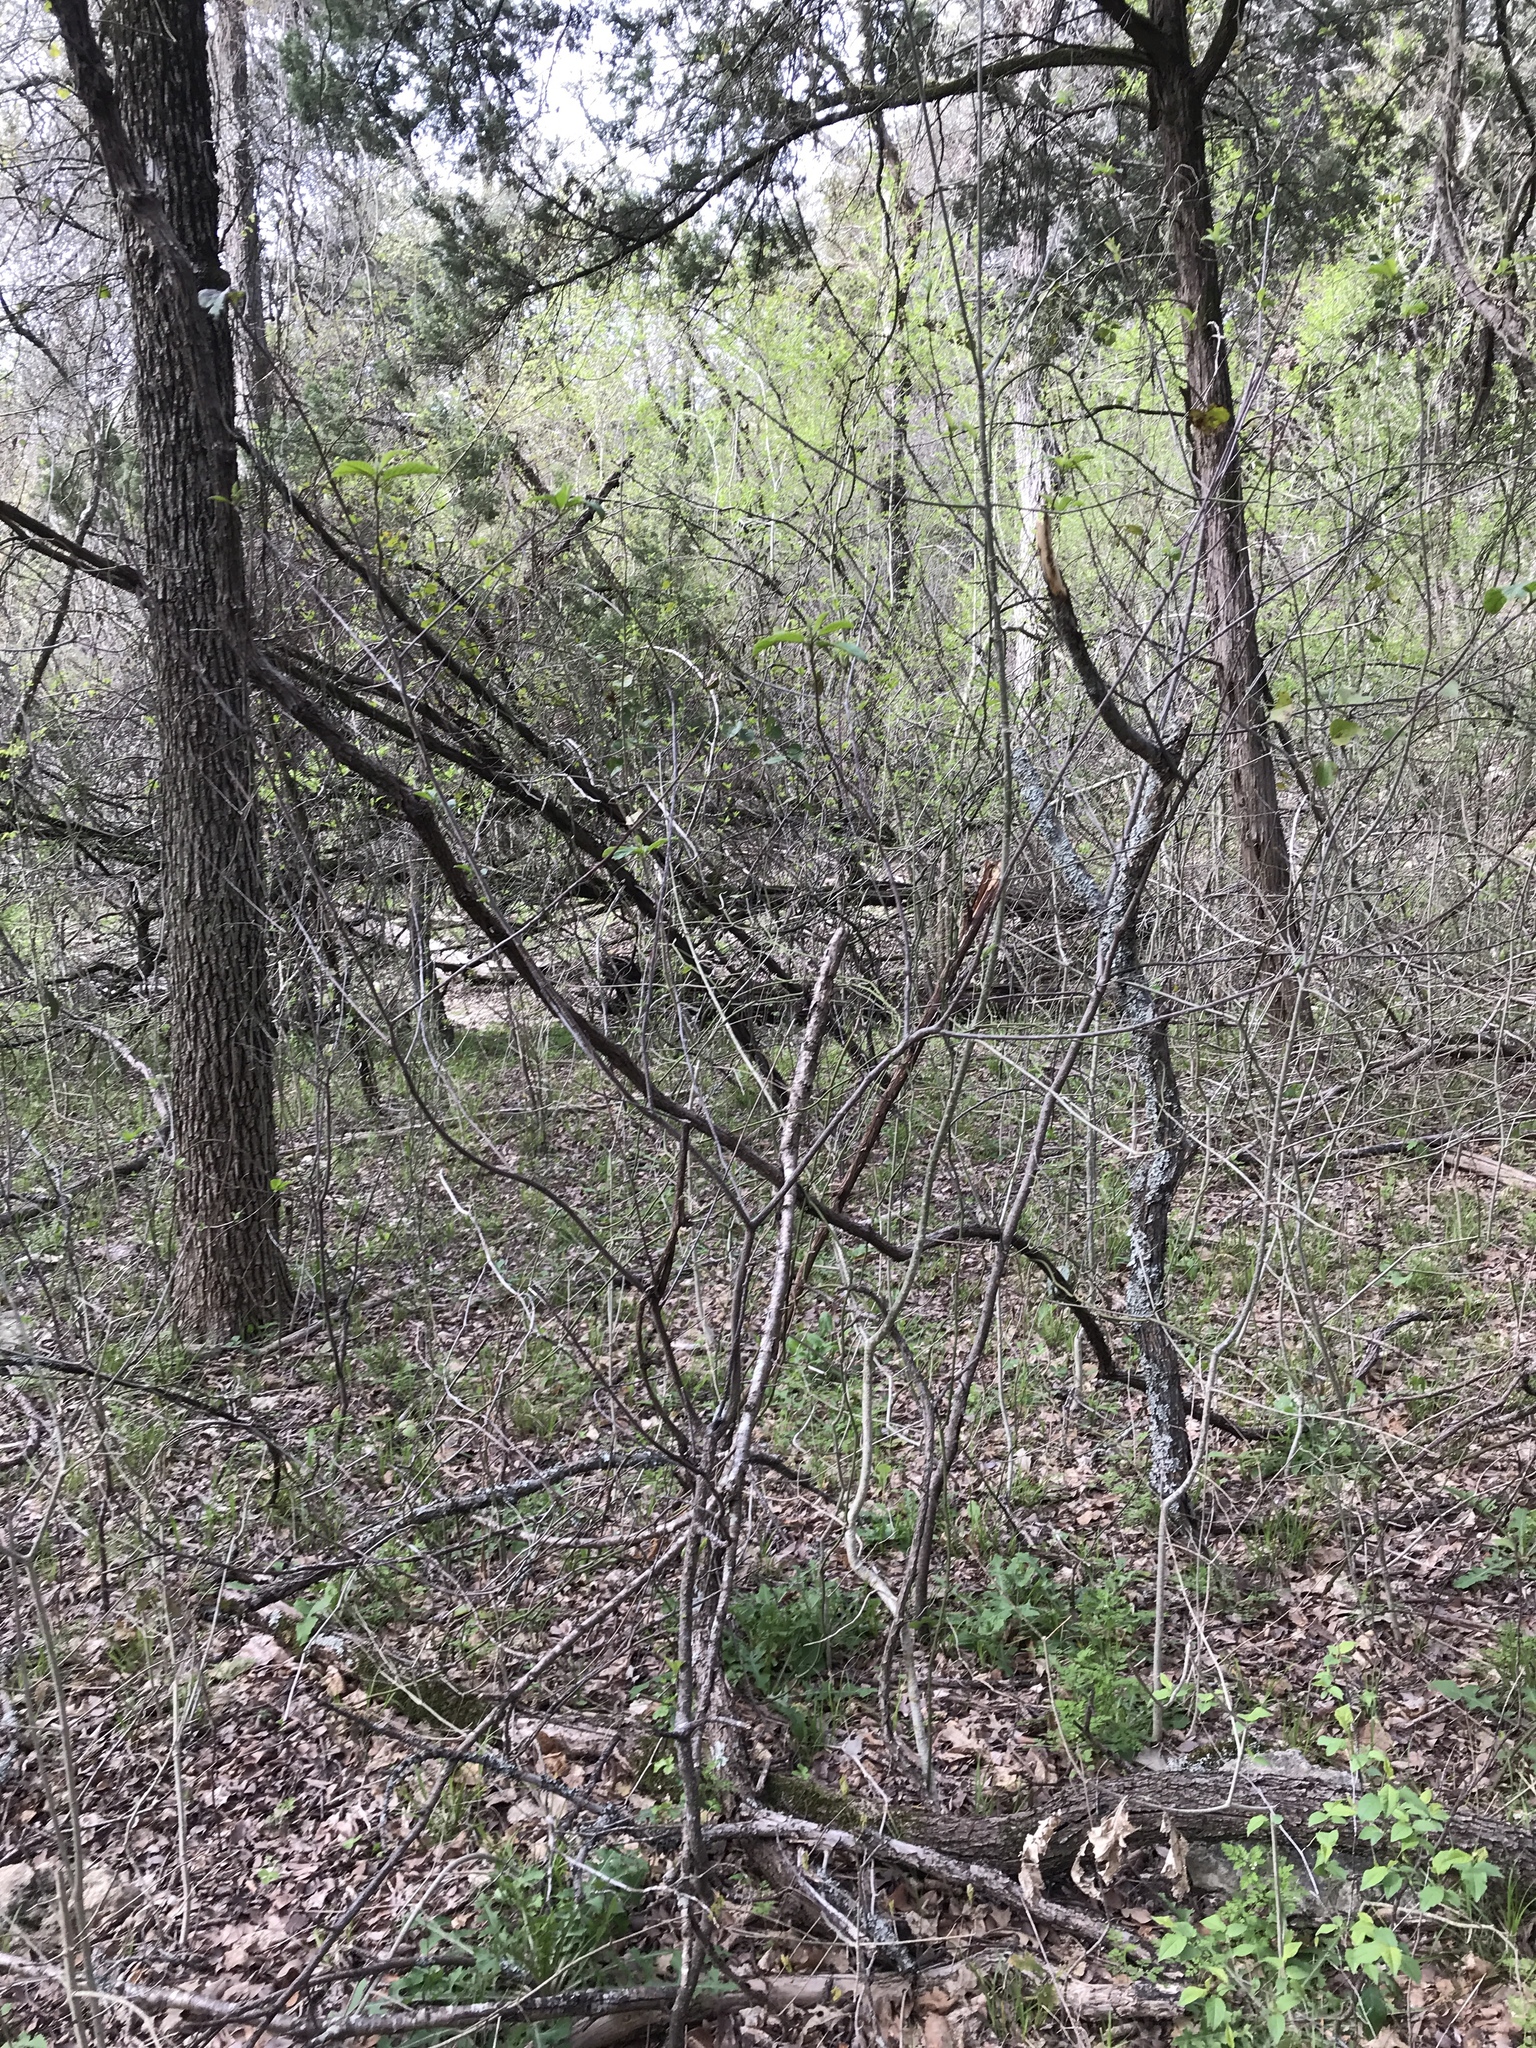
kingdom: Plantae
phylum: Tracheophyta
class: Magnoliopsida
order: Rosales
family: Rhamnaceae
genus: Frangula
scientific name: Frangula caroliniana
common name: Carolina buckthorn
